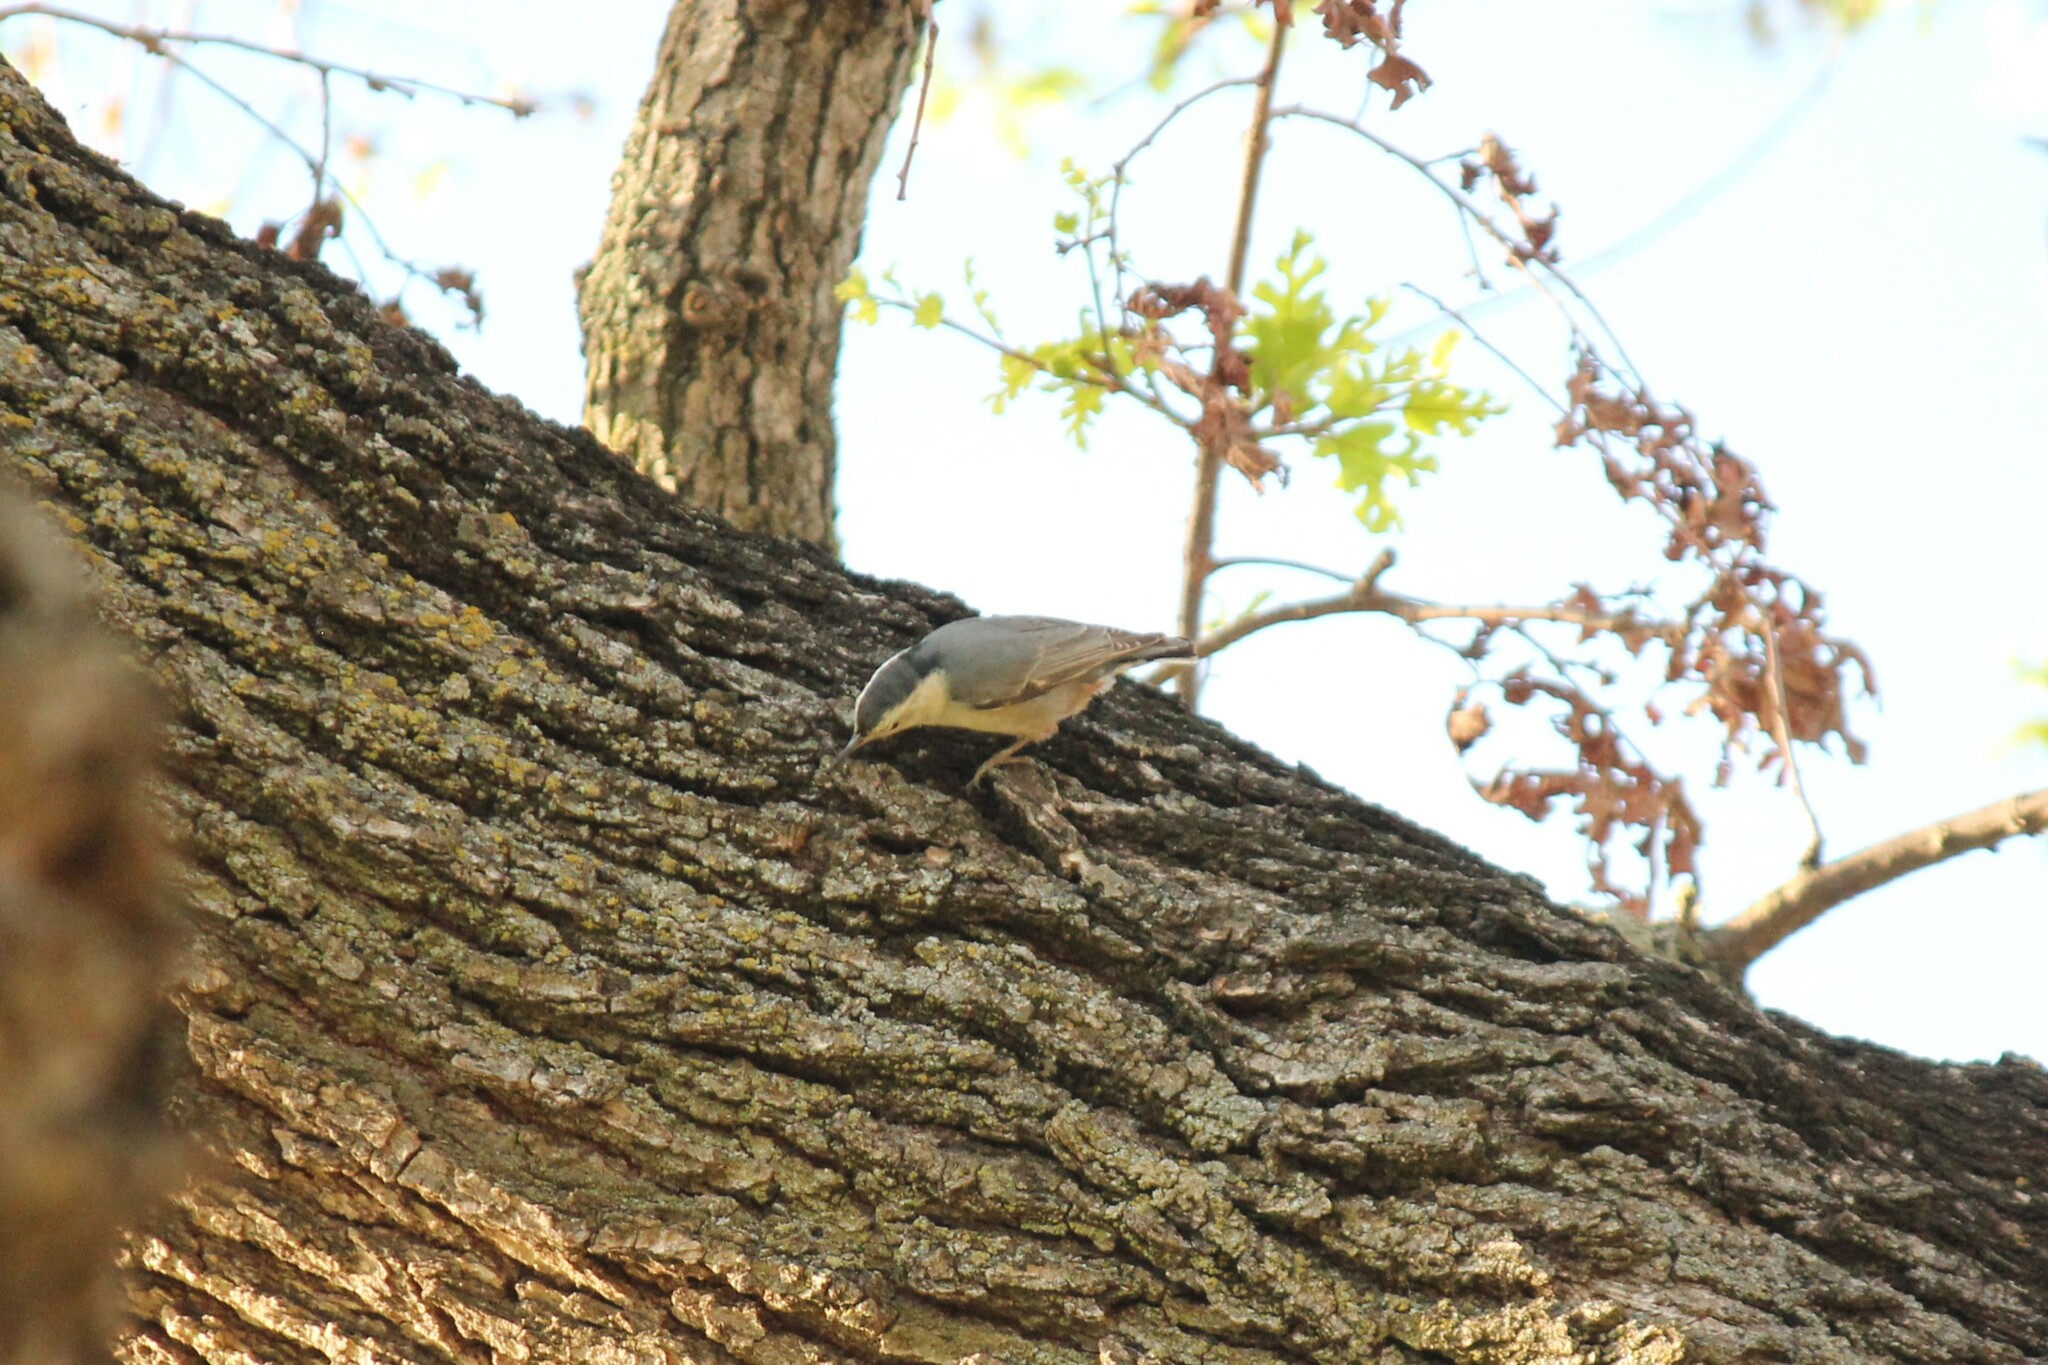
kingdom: Animalia
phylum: Chordata
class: Aves
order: Passeriformes
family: Sittidae
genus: Sitta
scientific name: Sitta carolinensis
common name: White-breasted nuthatch
